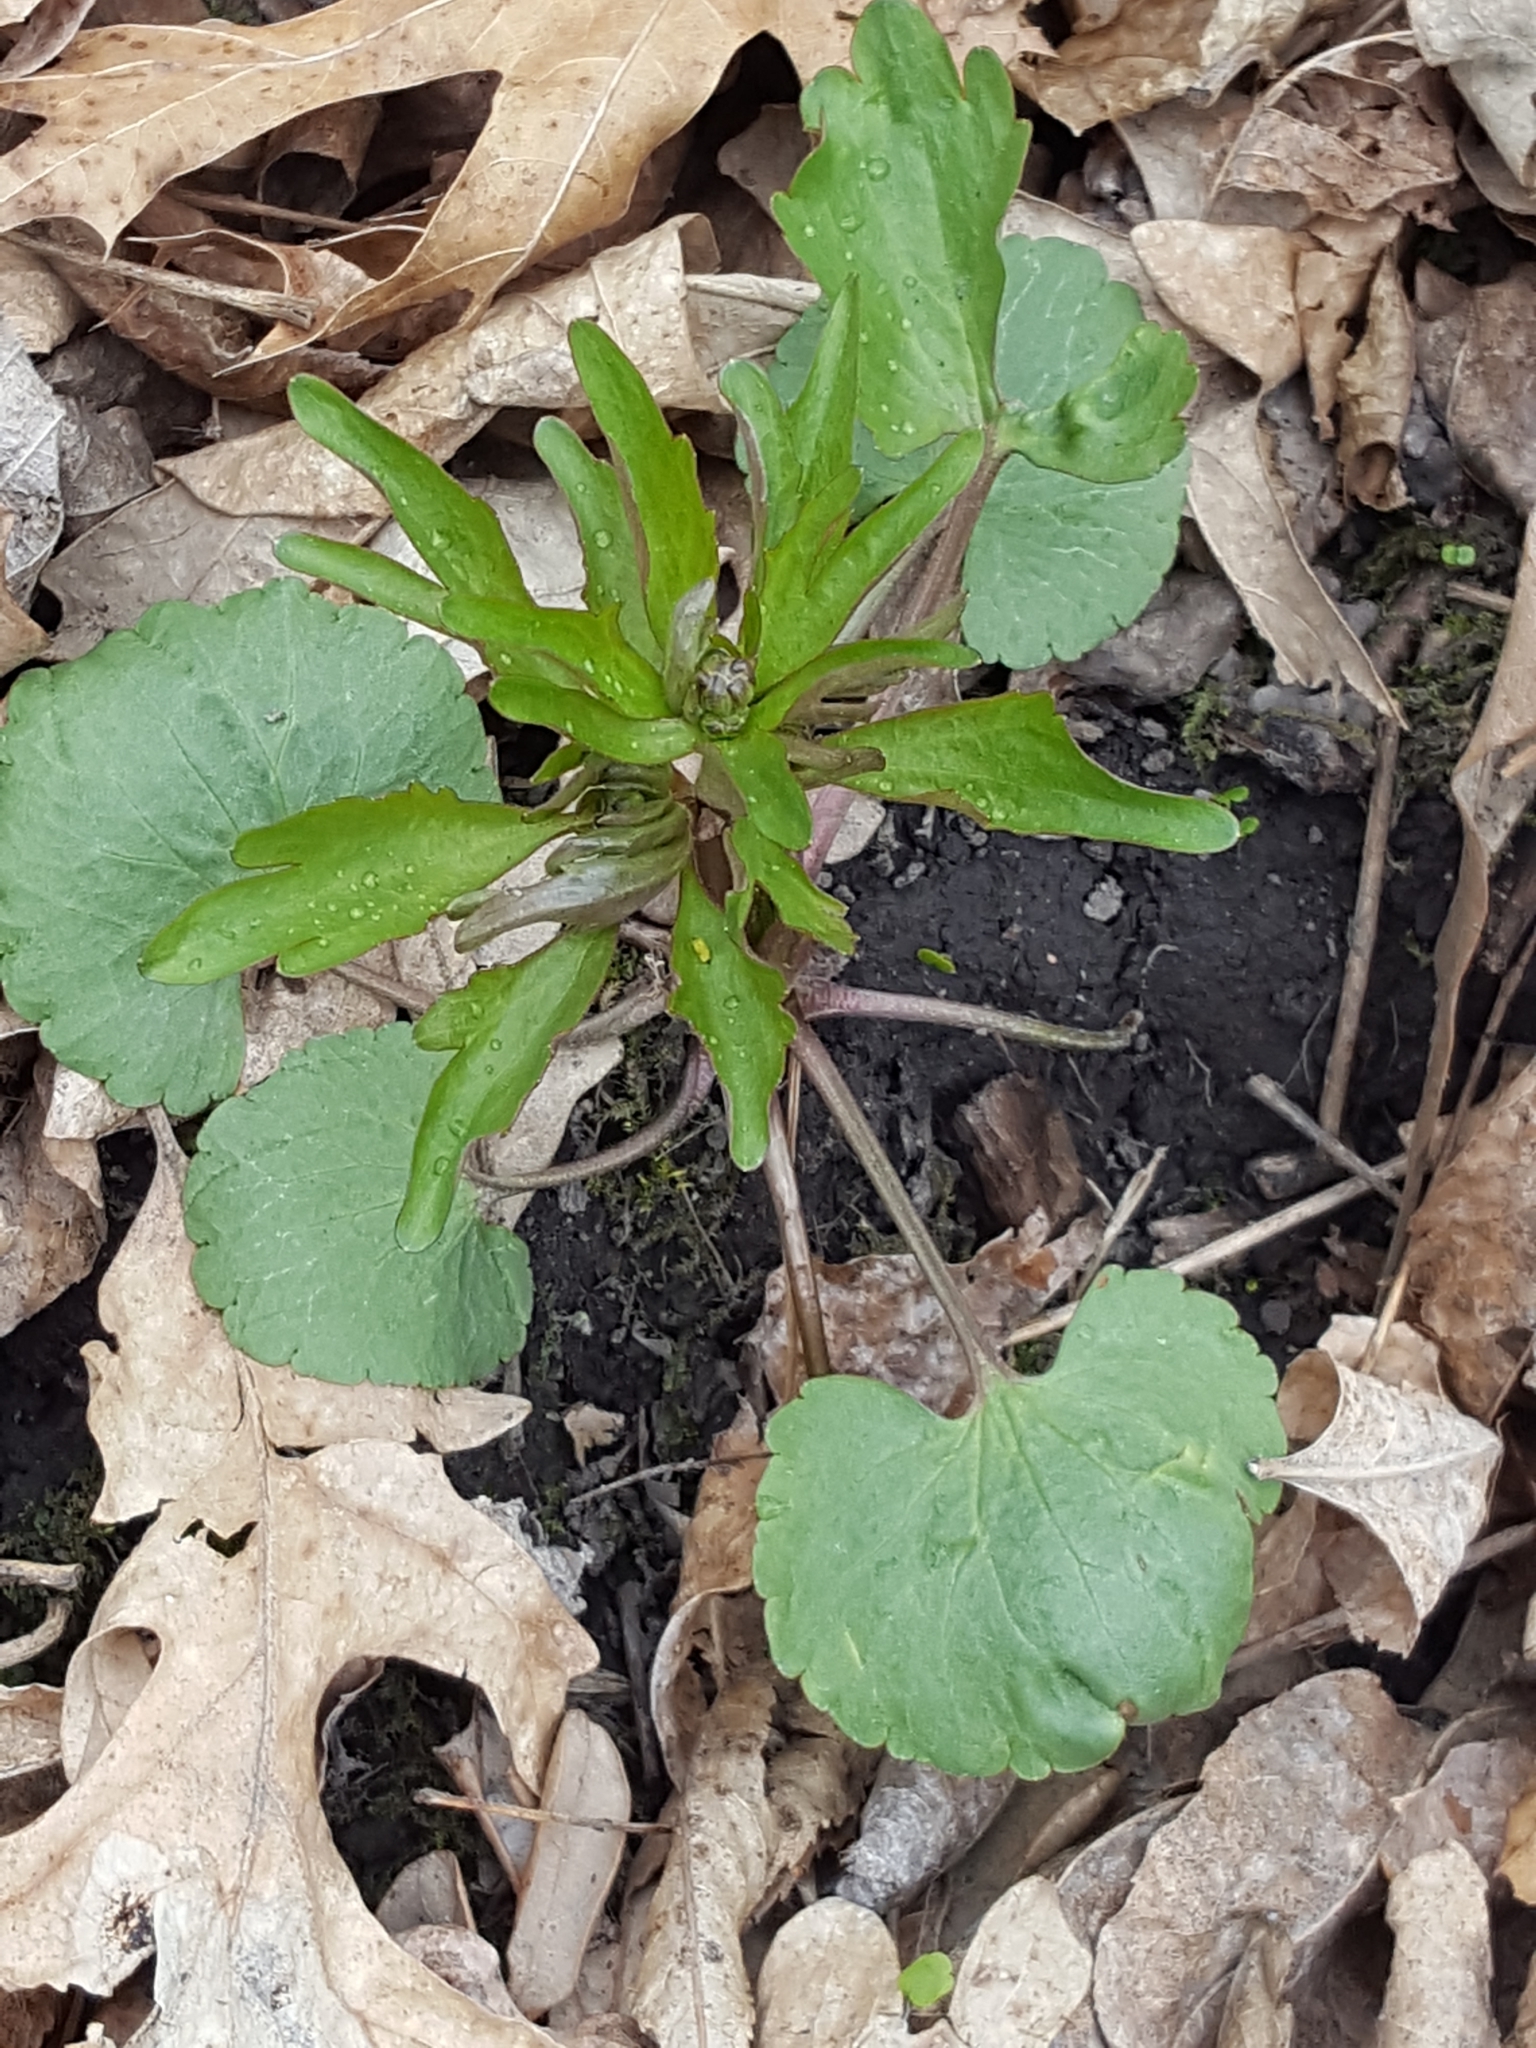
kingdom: Plantae
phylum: Tracheophyta
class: Magnoliopsida
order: Ranunculales
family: Ranunculaceae
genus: Ranunculus
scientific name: Ranunculus abortivus
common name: Early wood buttercup
